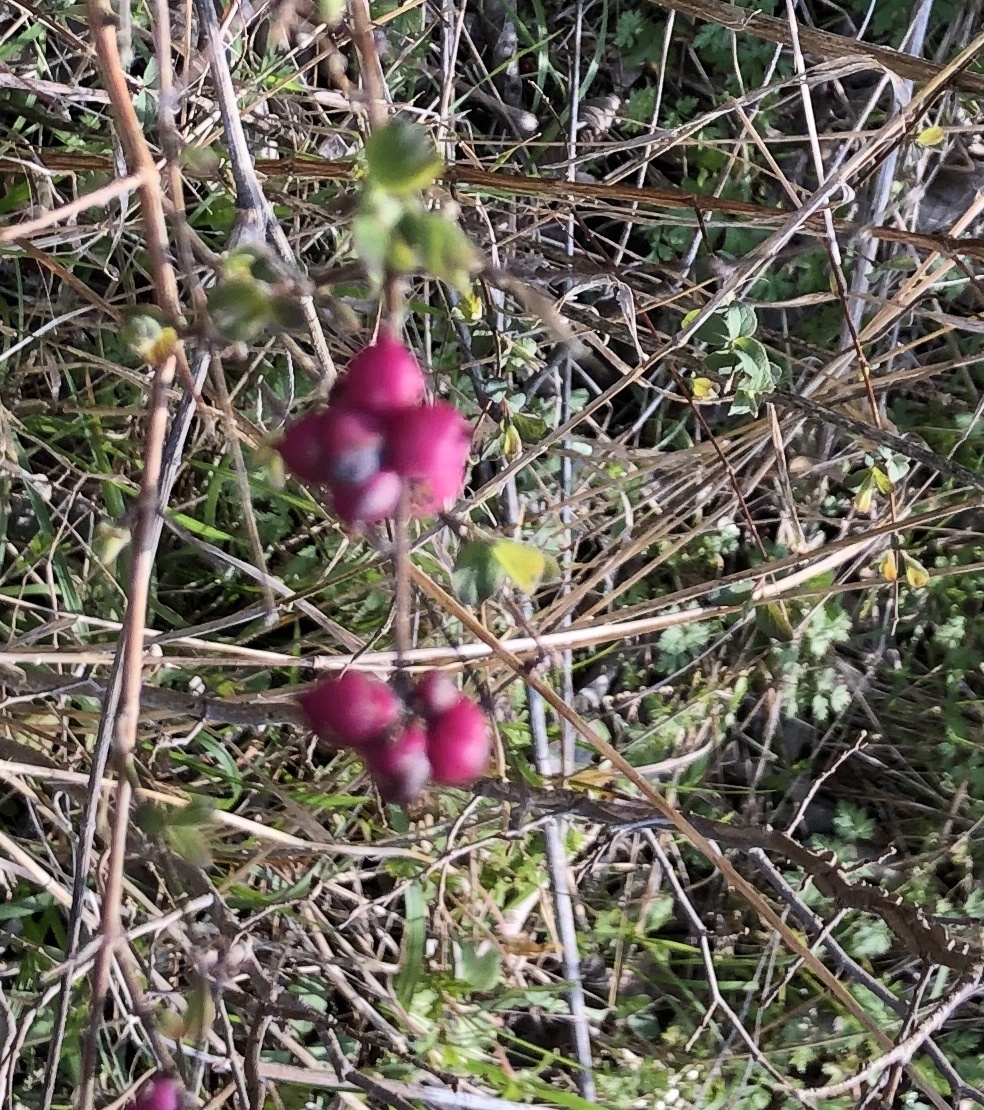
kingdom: Plantae
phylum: Tracheophyta
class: Magnoliopsida
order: Dipsacales
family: Caprifoliaceae
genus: Symphoricarpos
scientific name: Symphoricarpos orbiculatus
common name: Coralberry
